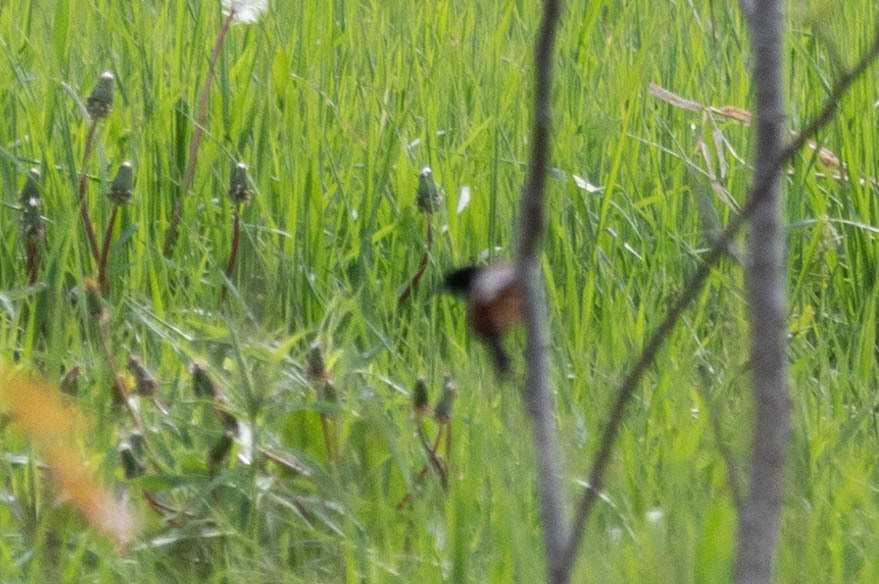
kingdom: Animalia
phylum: Chordata
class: Aves
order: Passeriformes
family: Icteridae
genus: Icterus
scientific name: Icterus spurius
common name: Orchard oriole
